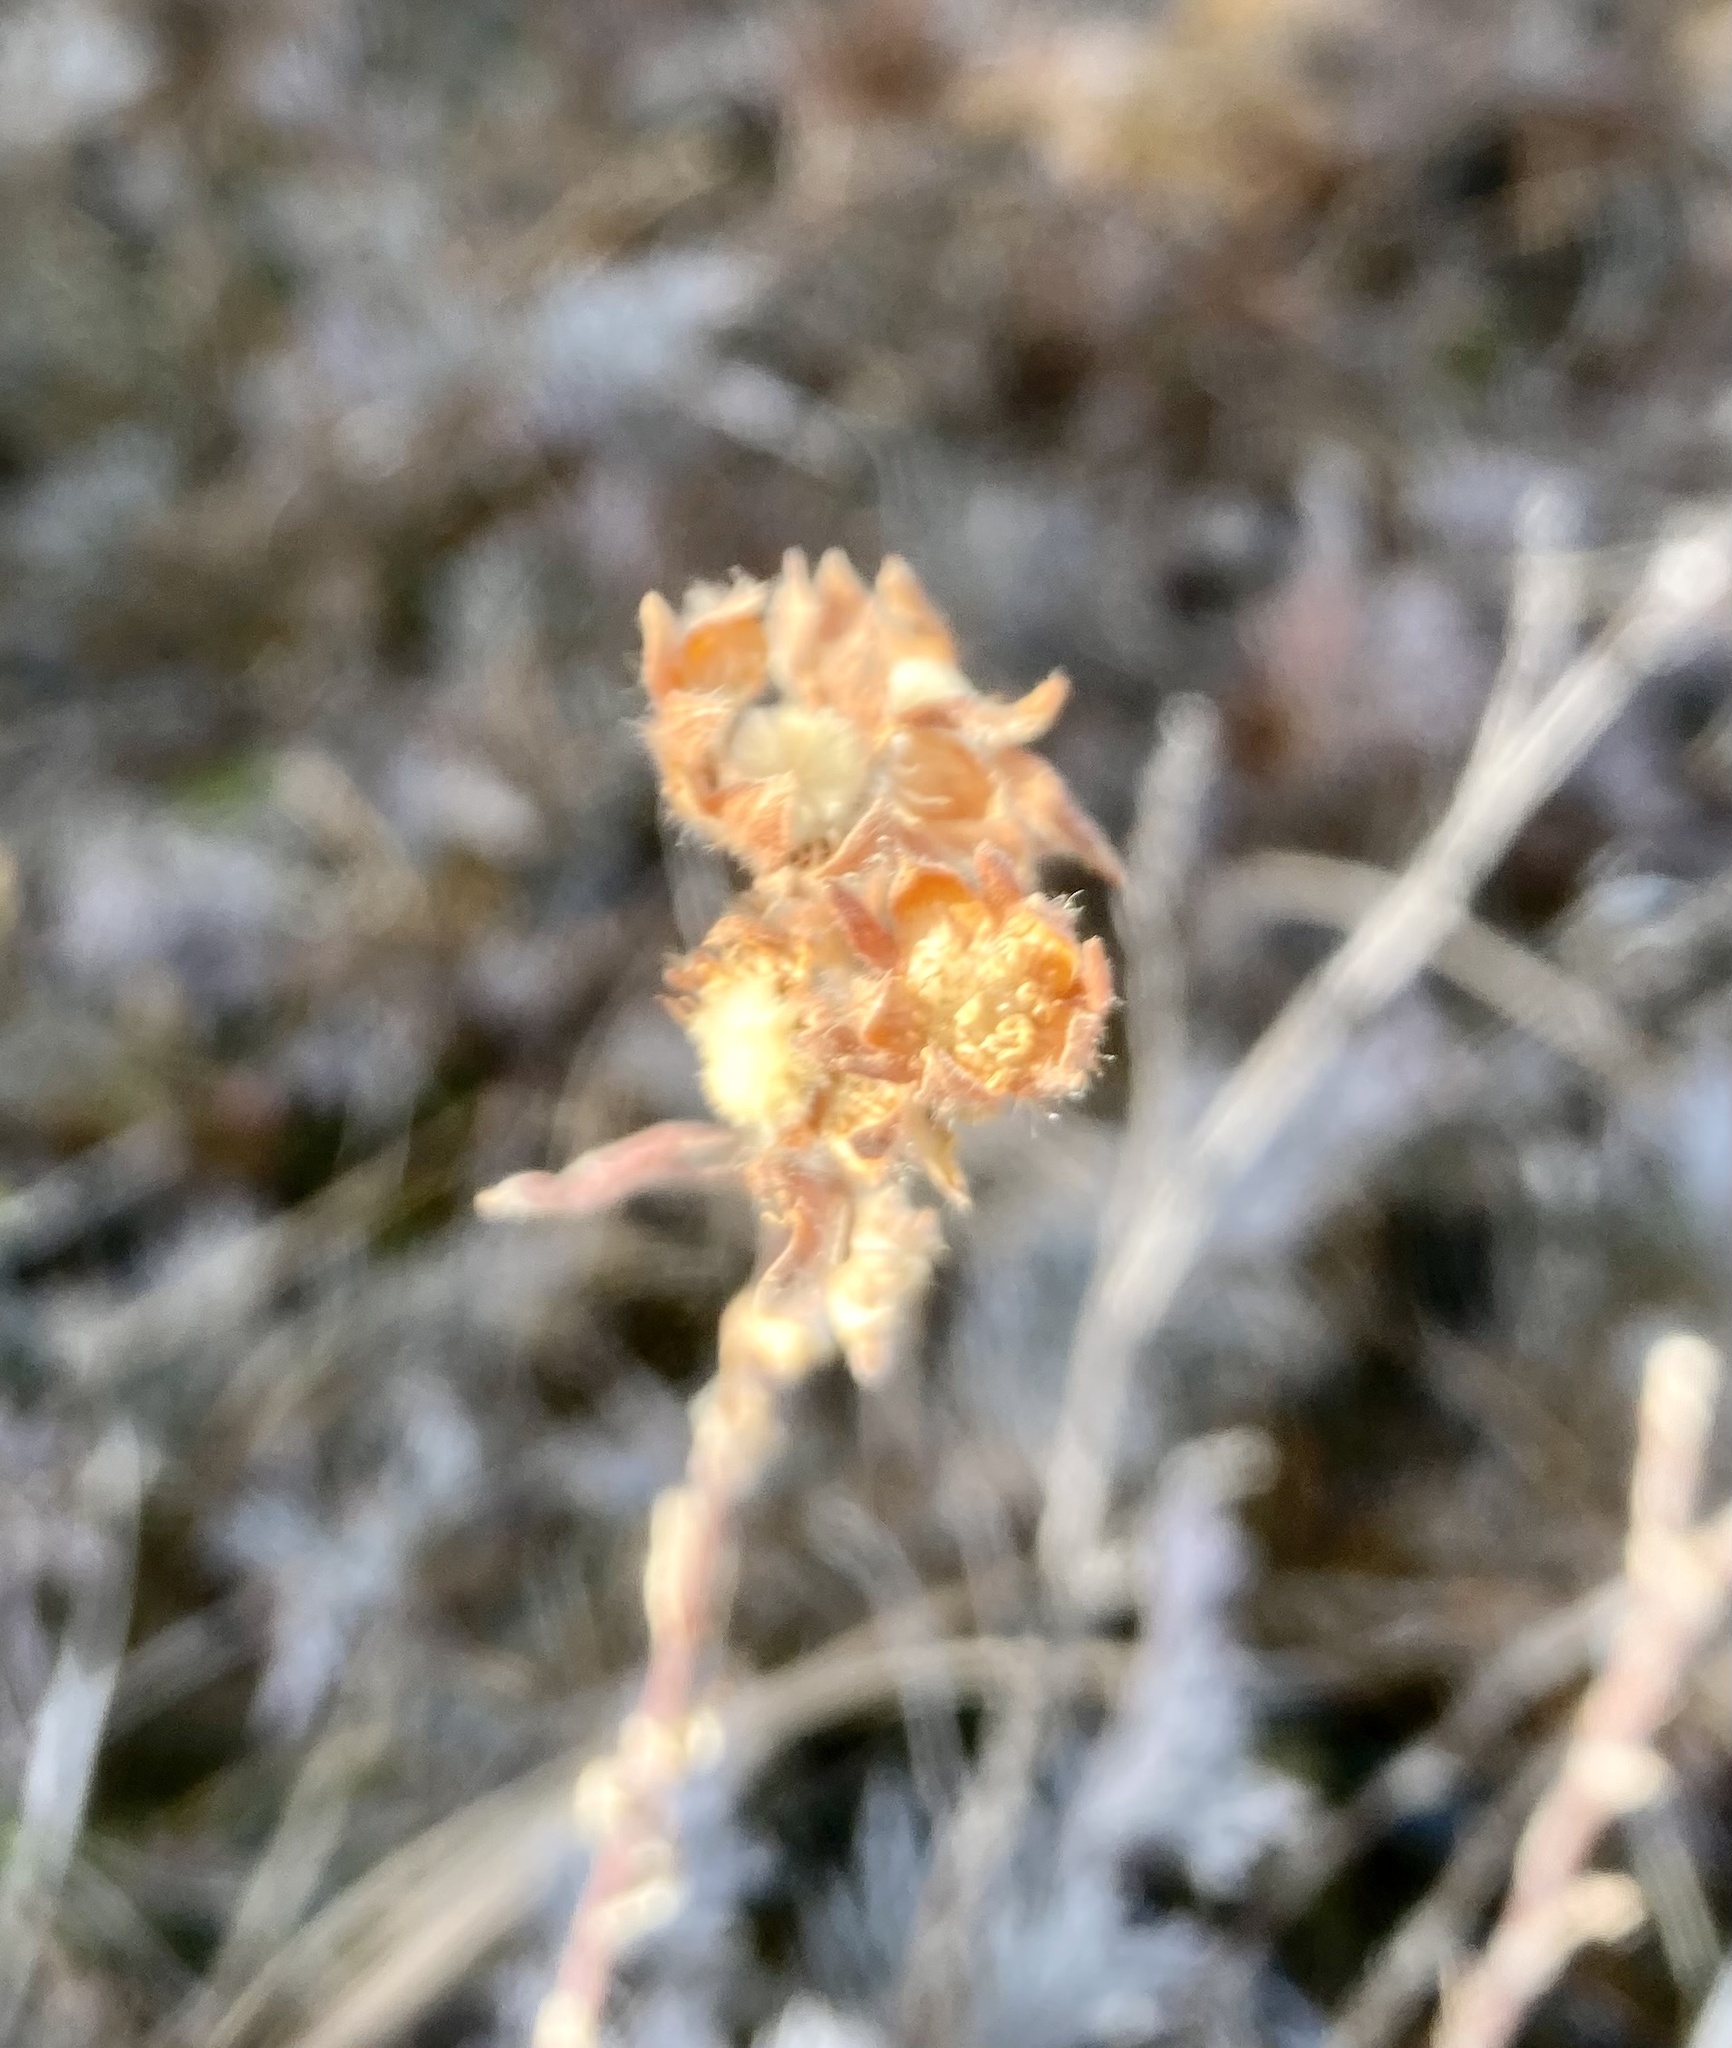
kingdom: Plantae
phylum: Tracheophyta
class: Magnoliopsida
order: Rosales
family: Rosaceae
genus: Dasiphora
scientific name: Dasiphora fruticosa
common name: Shrubby cinquefoil
